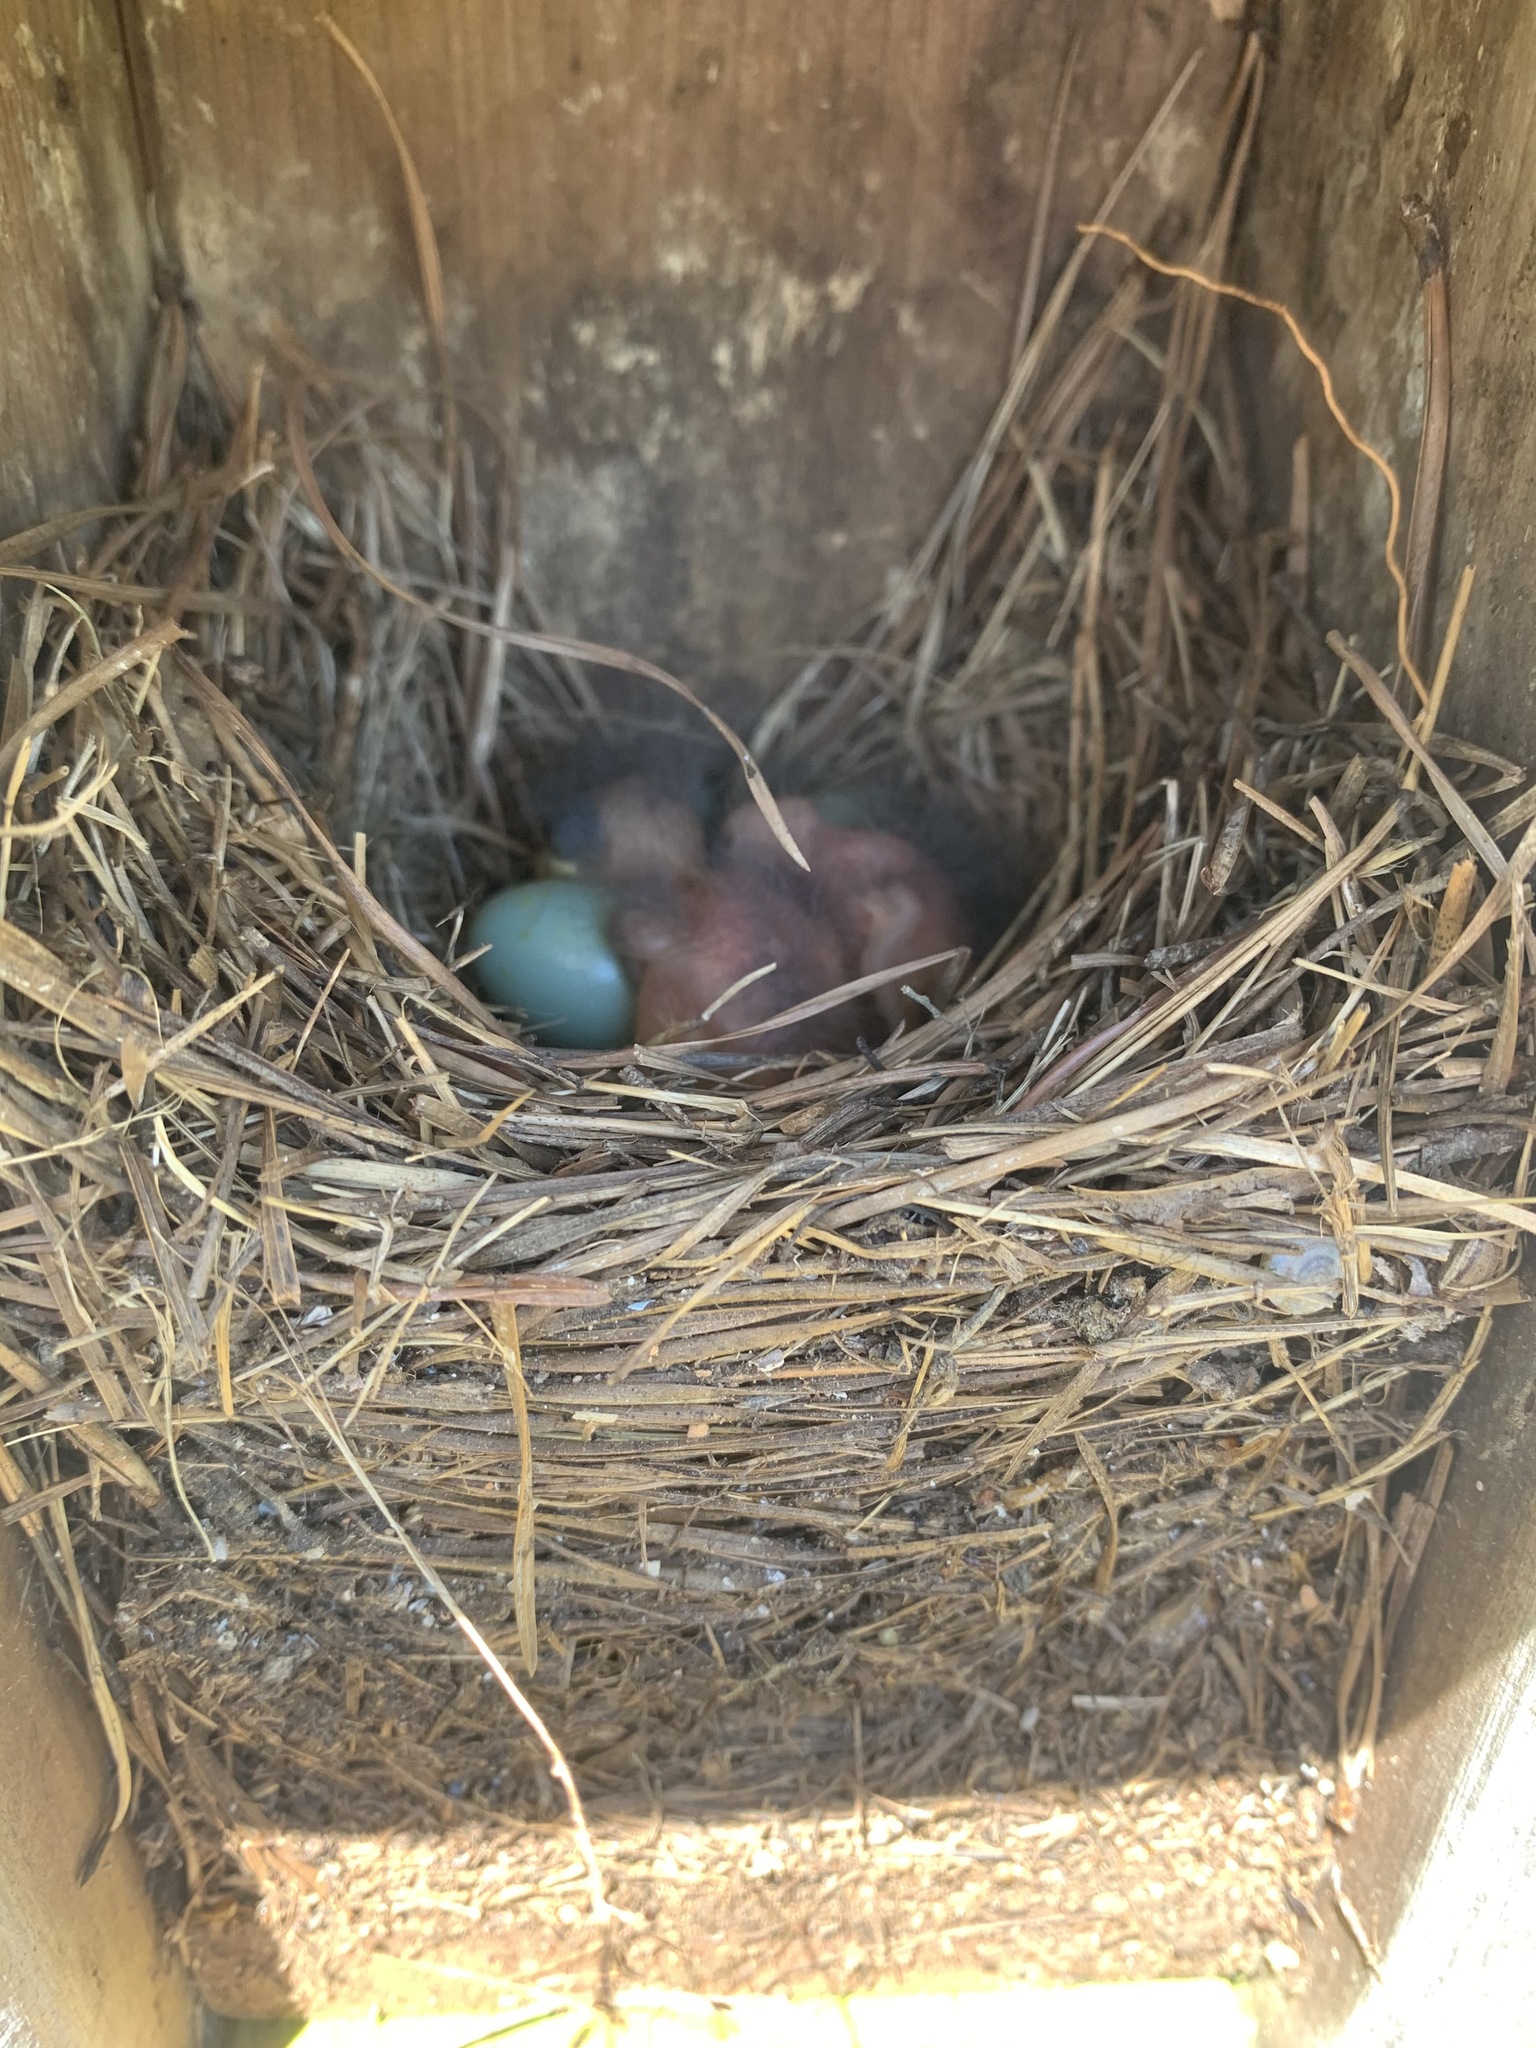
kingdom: Animalia
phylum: Chordata
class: Aves
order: Passeriformes
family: Turdidae
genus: Sialia
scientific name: Sialia sialis
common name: Eastern bluebird
